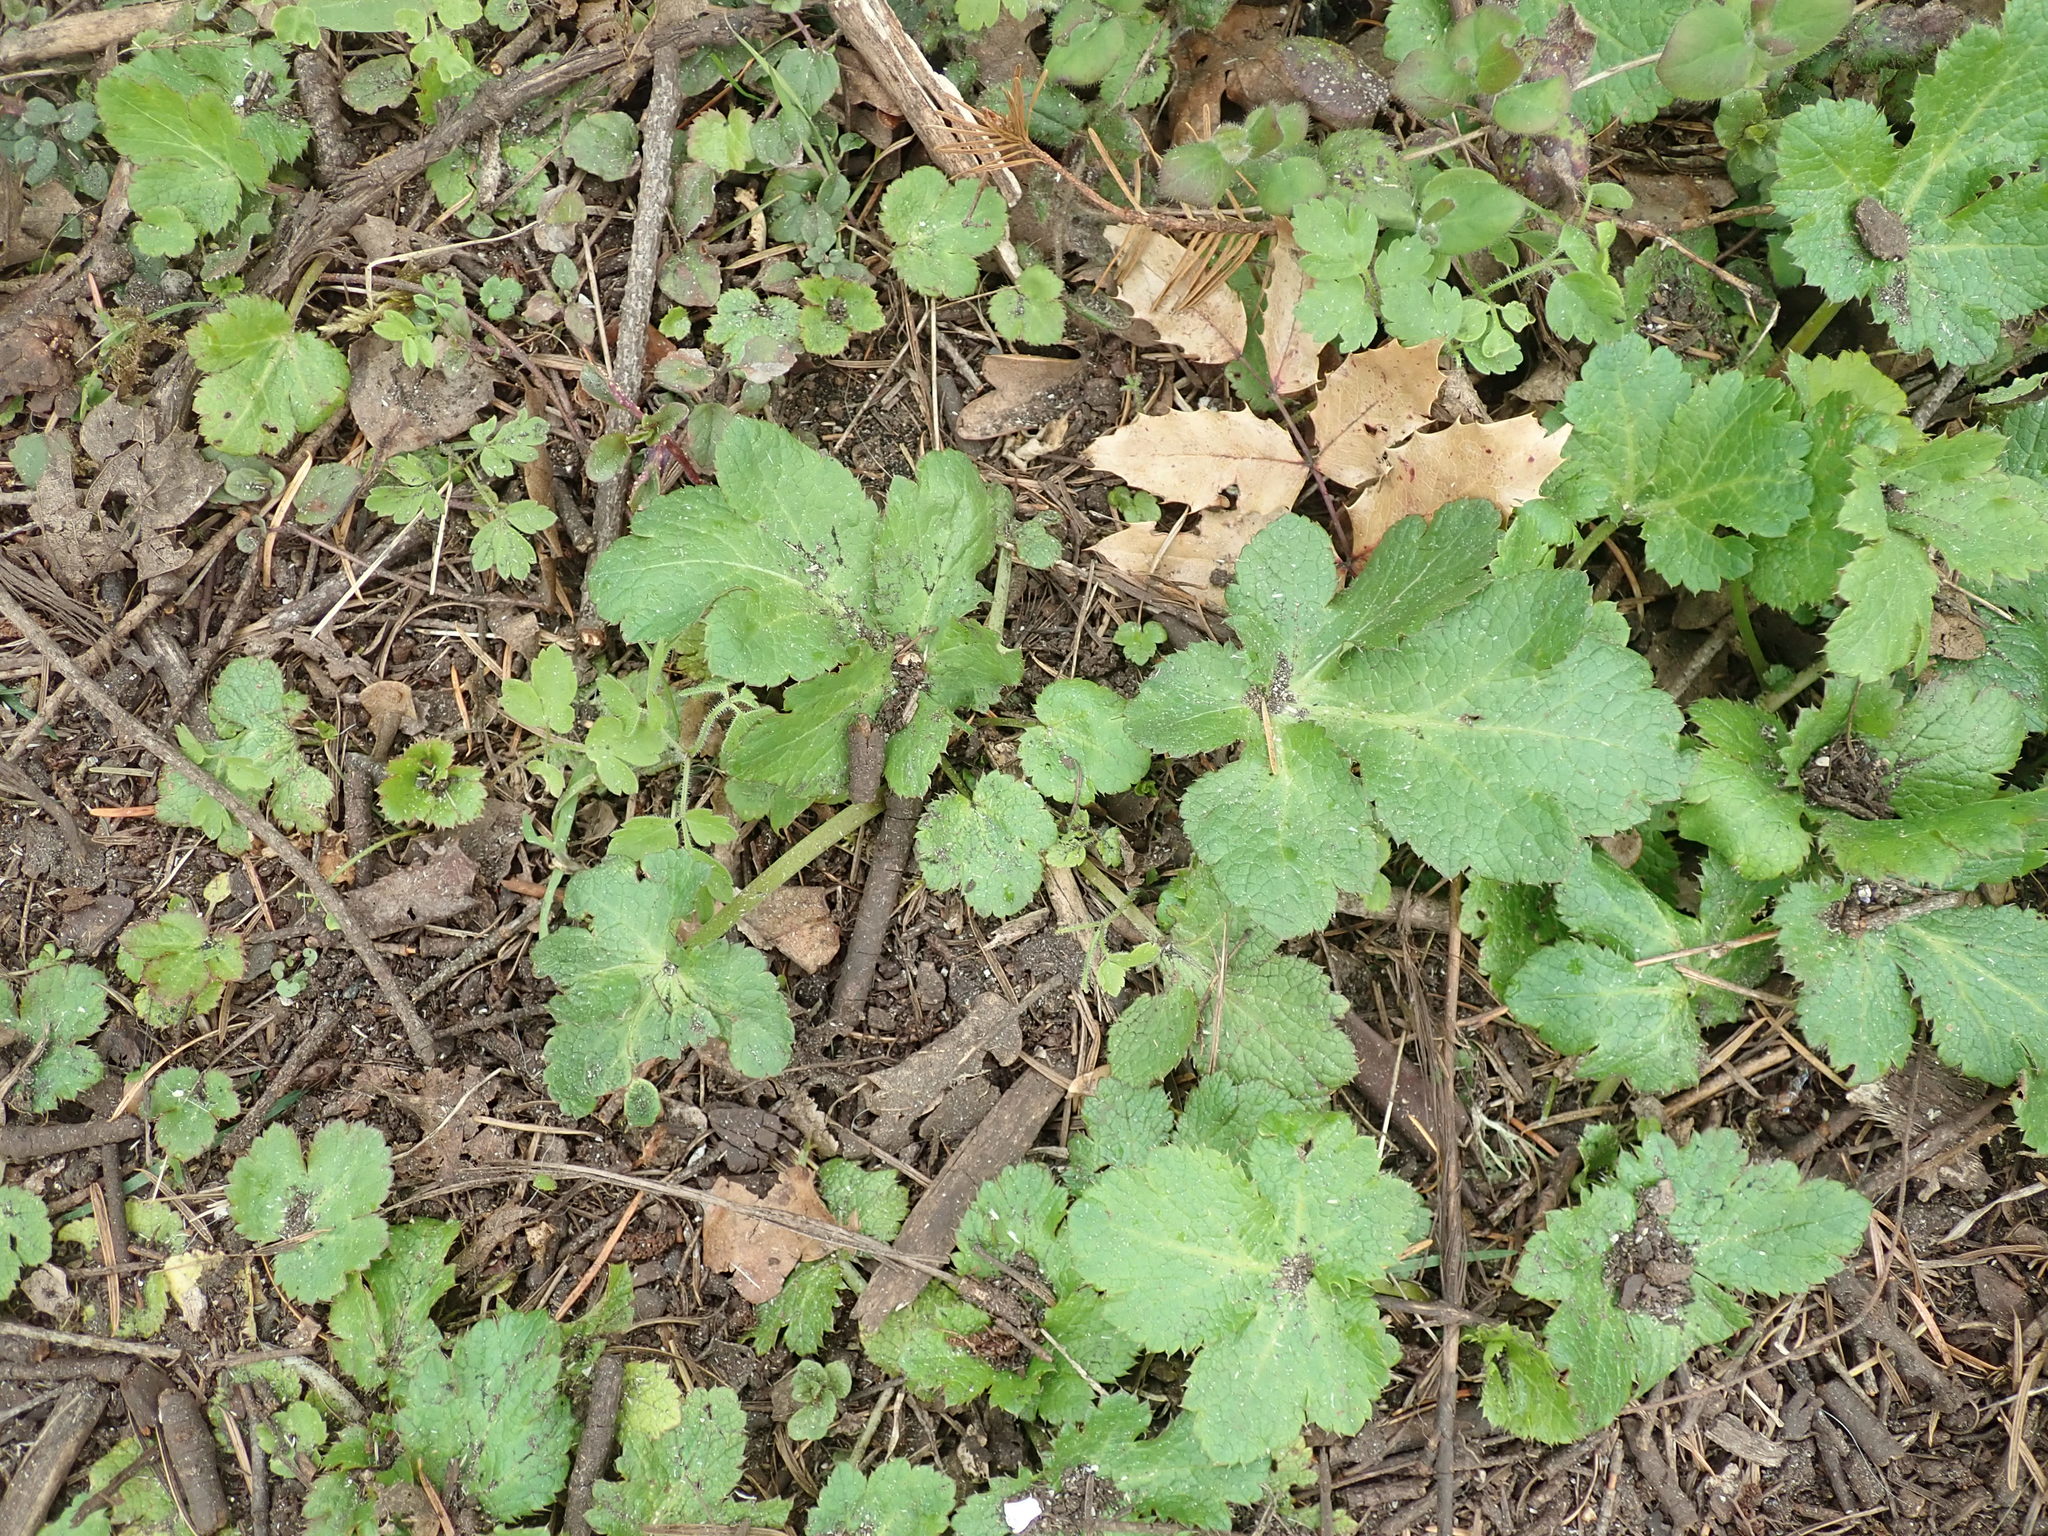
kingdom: Plantae
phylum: Tracheophyta
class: Magnoliopsida
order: Apiales
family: Apiaceae
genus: Sanicula
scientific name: Sanicula crassicaulis
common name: Western snakeroot
